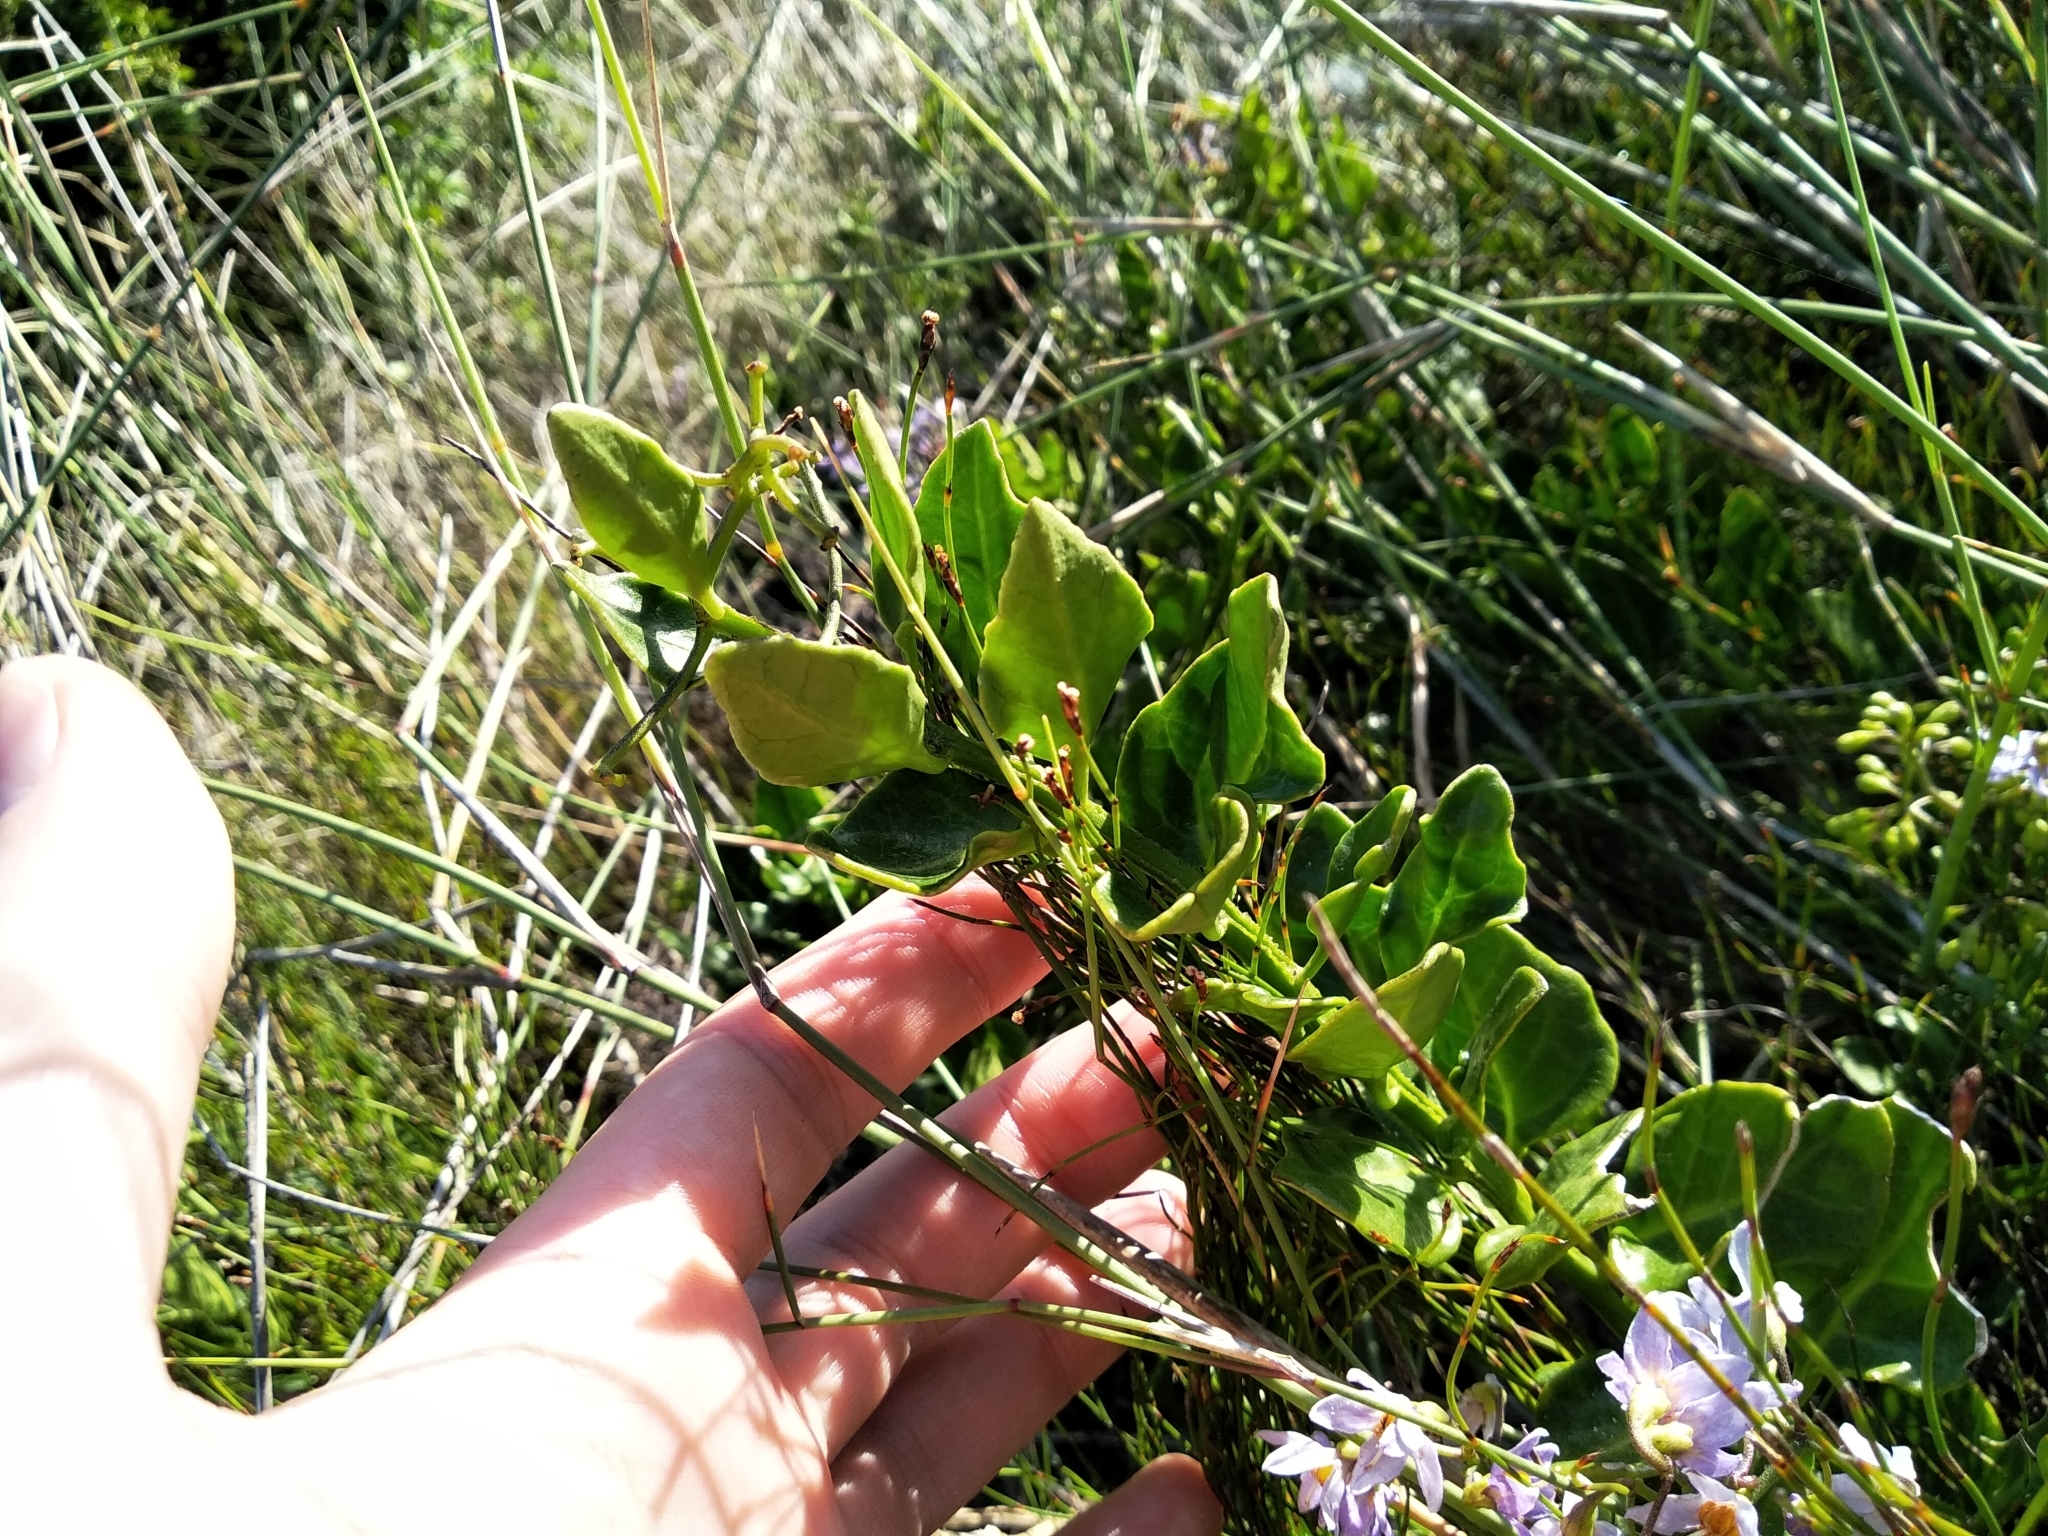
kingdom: Plantae
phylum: Tracheophyta
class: Magnoliopsida
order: Solanales
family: Solanaceae
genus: Solanum
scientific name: Solanum africanum
